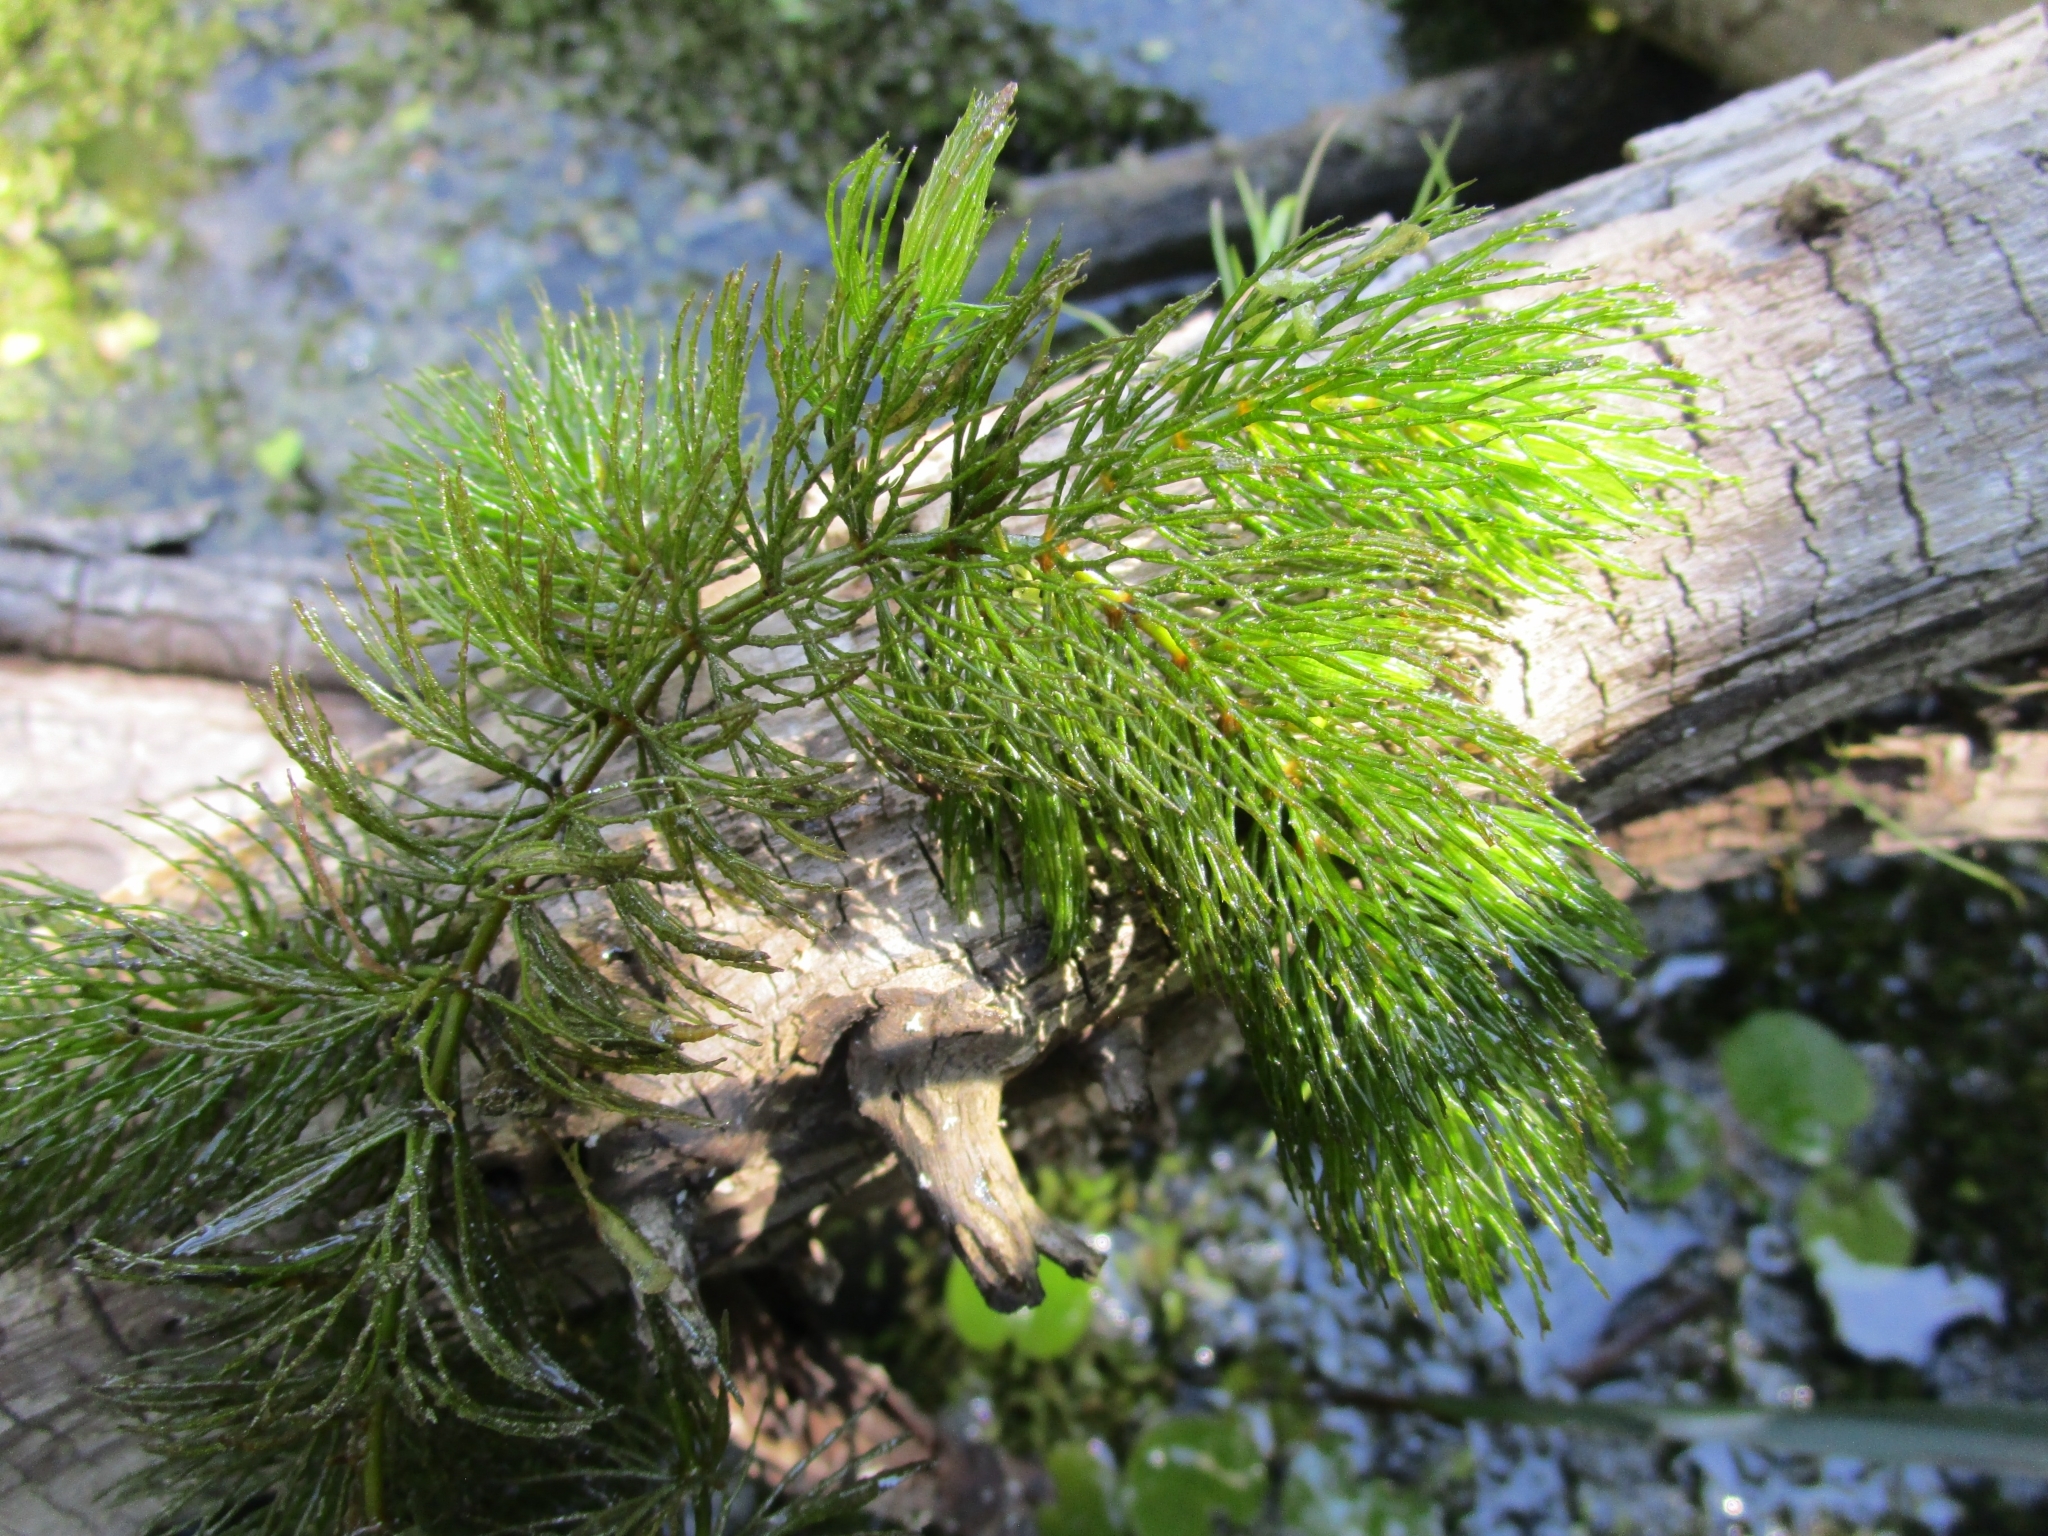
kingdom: Plantae
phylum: Tracheophyta
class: Magnoliopsida
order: Ceratophyllales
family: Ceratophyllaceae
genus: Ceratophyllum
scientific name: Ceratophyllum demersum
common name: Rigid hornwort
